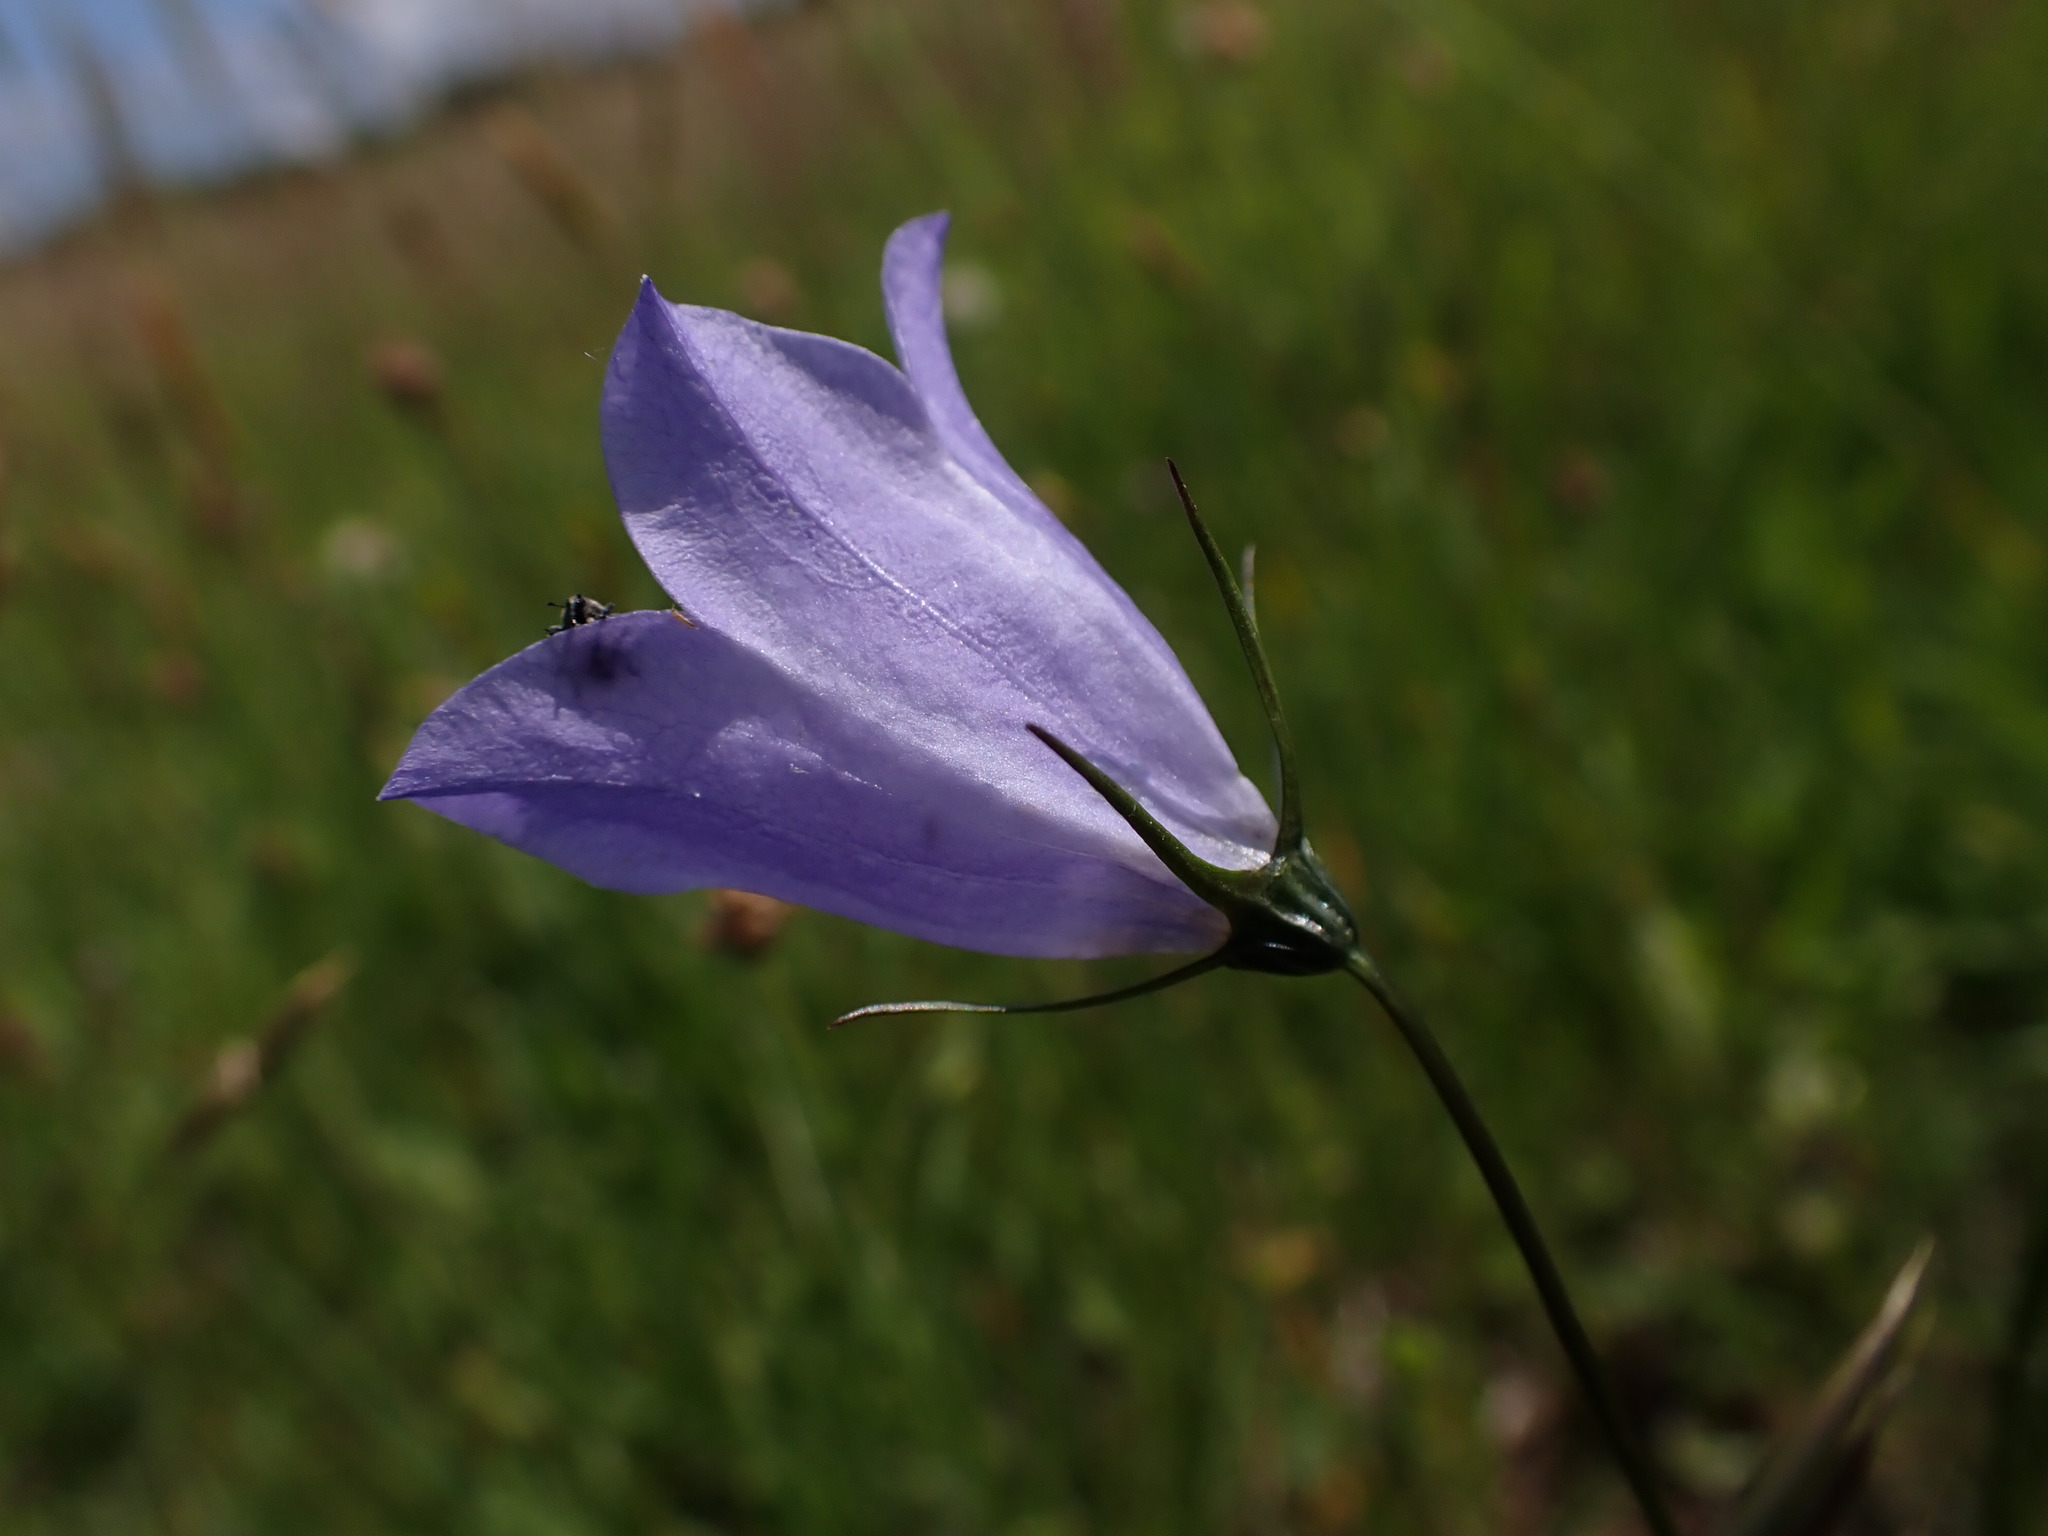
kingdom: Plantae
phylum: Tracheophyta
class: Magnoliopsida
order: Asterales
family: Campanulaceae
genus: Campanula
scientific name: Campanula rotundifolia
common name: Harebell
